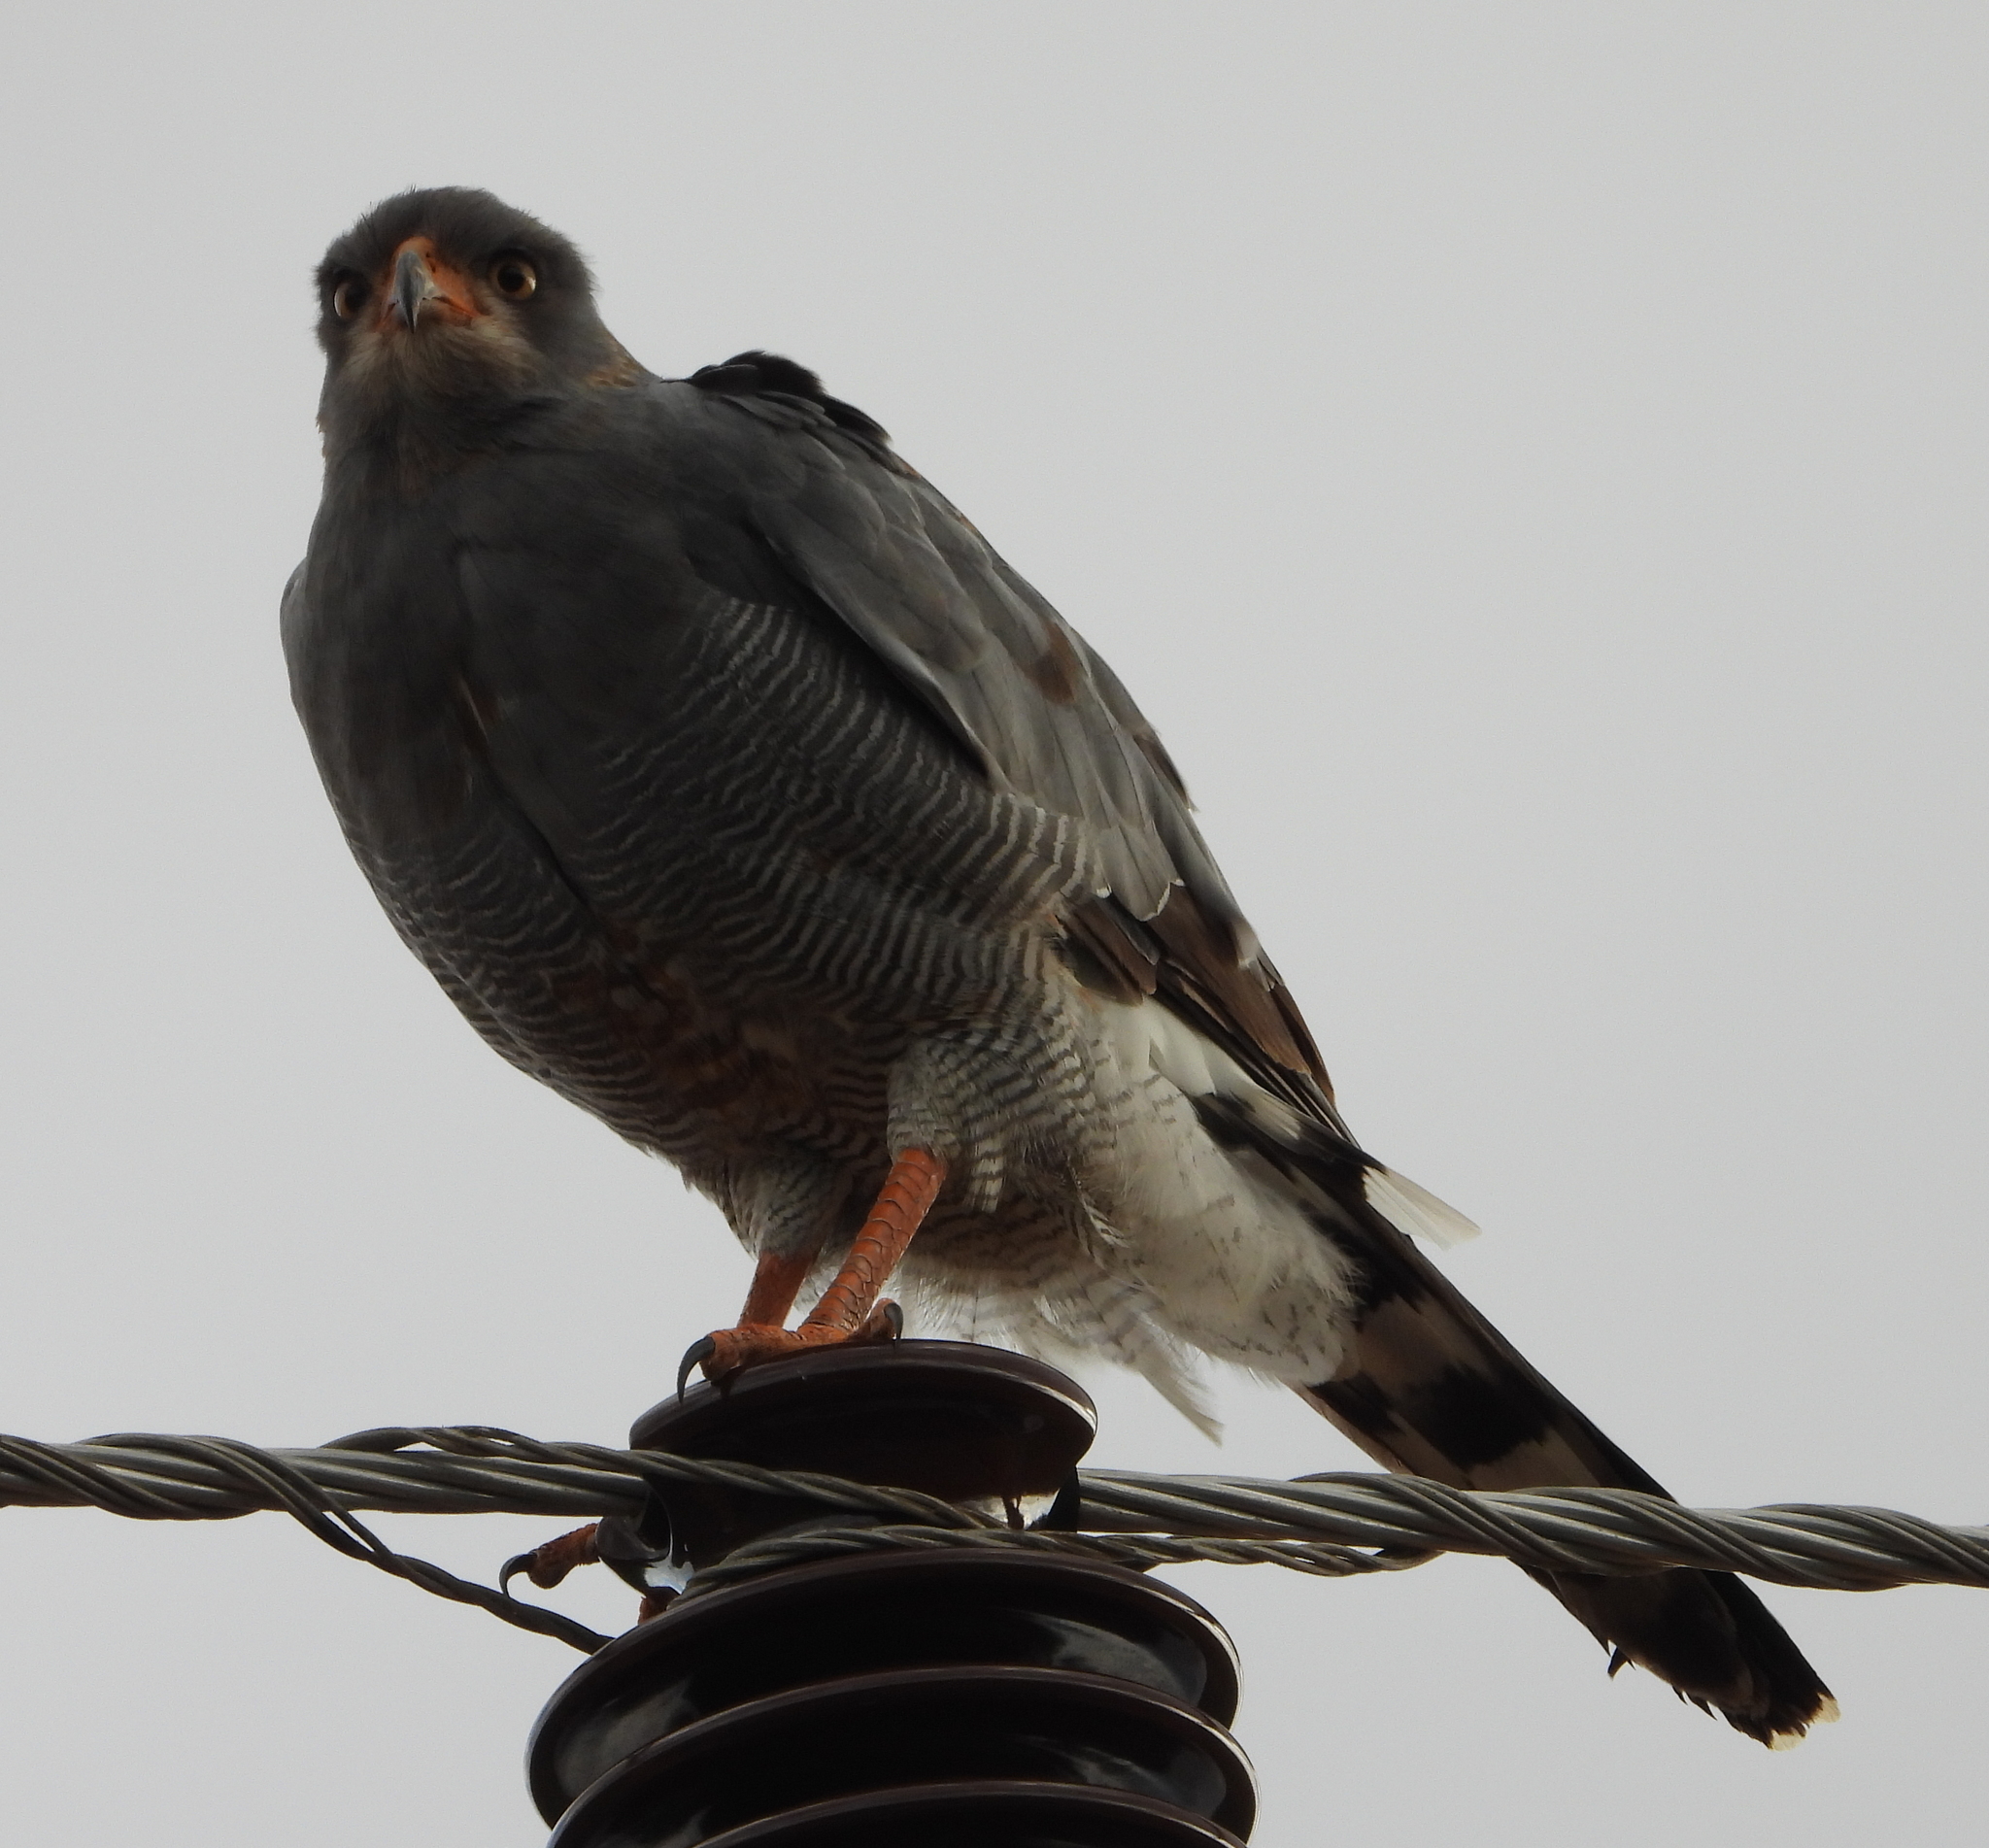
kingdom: Animalia
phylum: Chordata
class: Aves
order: Accipitriformes
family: Accipitridae
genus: Melierax
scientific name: Melierax canorus
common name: Pale chanting-goshawk
